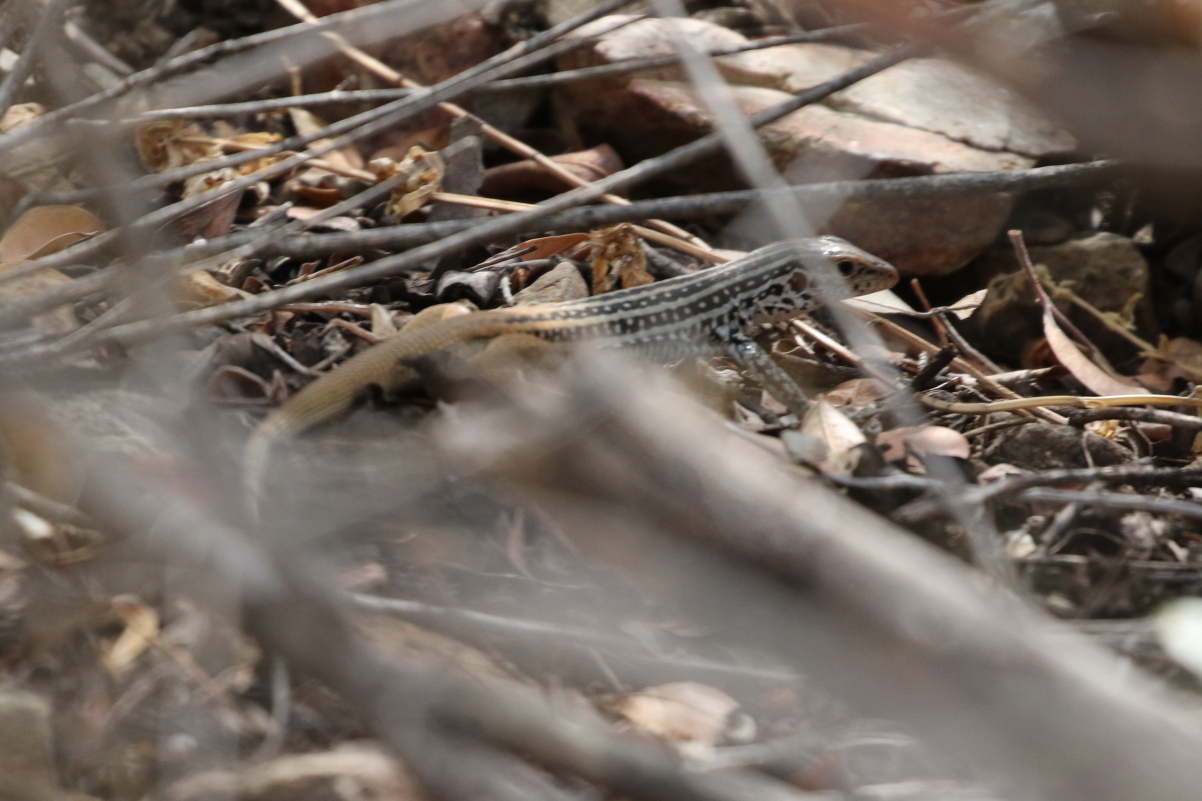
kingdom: Animalia
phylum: Chordata
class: Squamata
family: Teiidae
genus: Aspidoscelis
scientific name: Aspidoscelis scalaris
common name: Rusty-rumped whiptail
